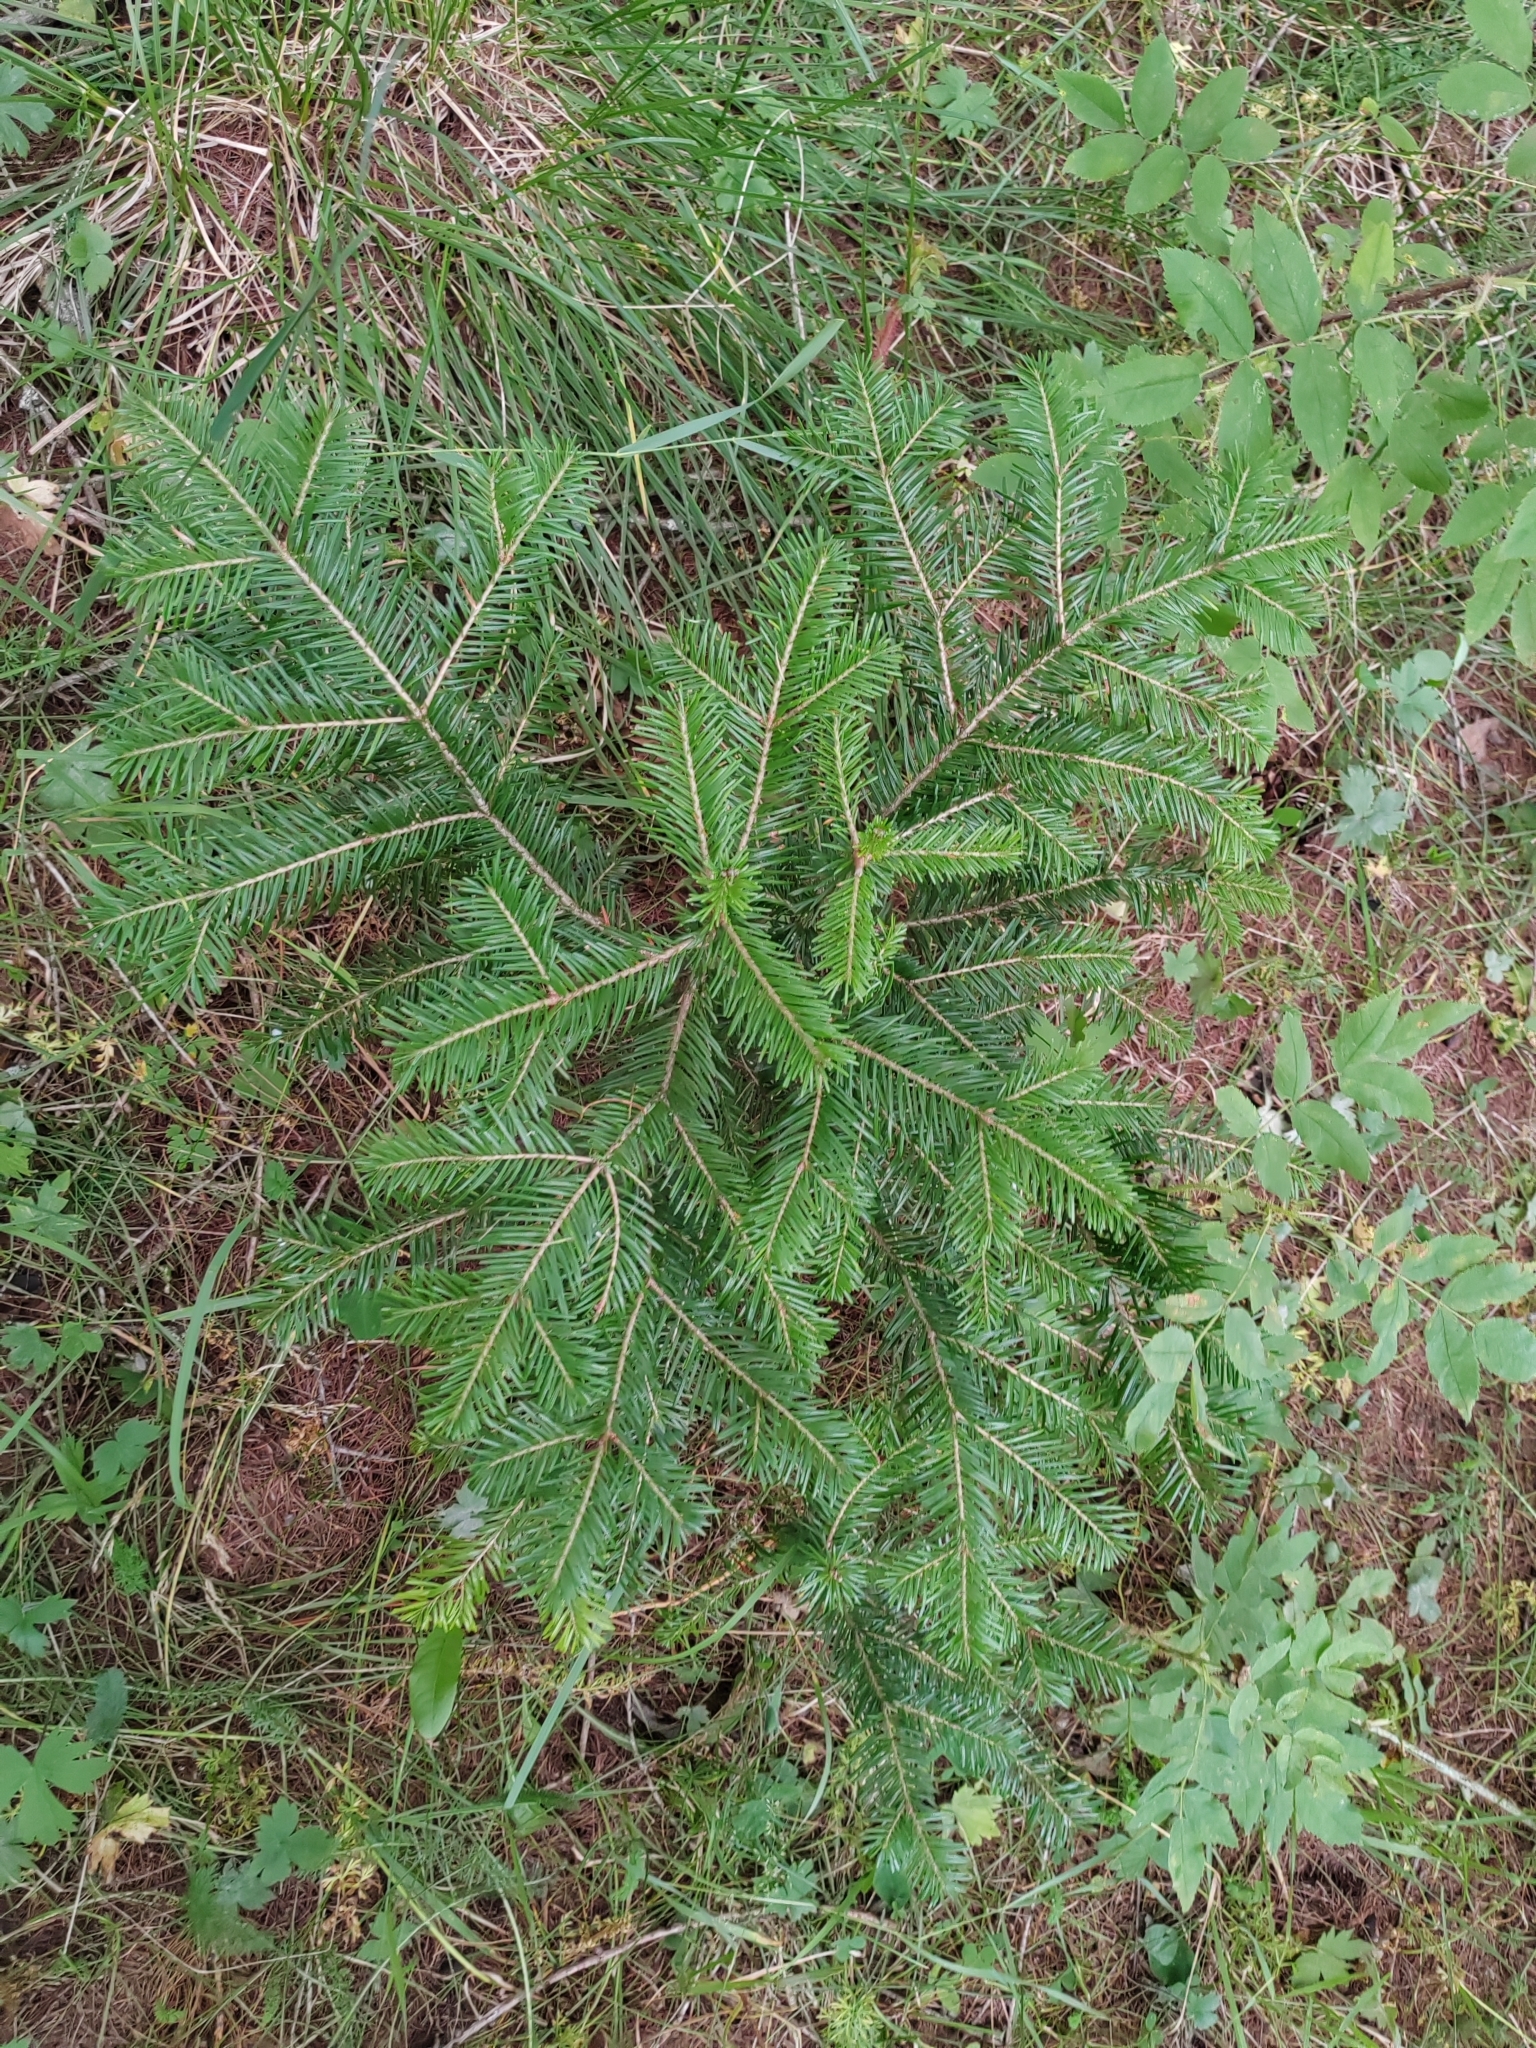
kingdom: Plantae
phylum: Tracheophyta
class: Pinopsida
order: Pinales
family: Pinaceae
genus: Abies
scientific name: Abies sibirica
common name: Siberian fir
